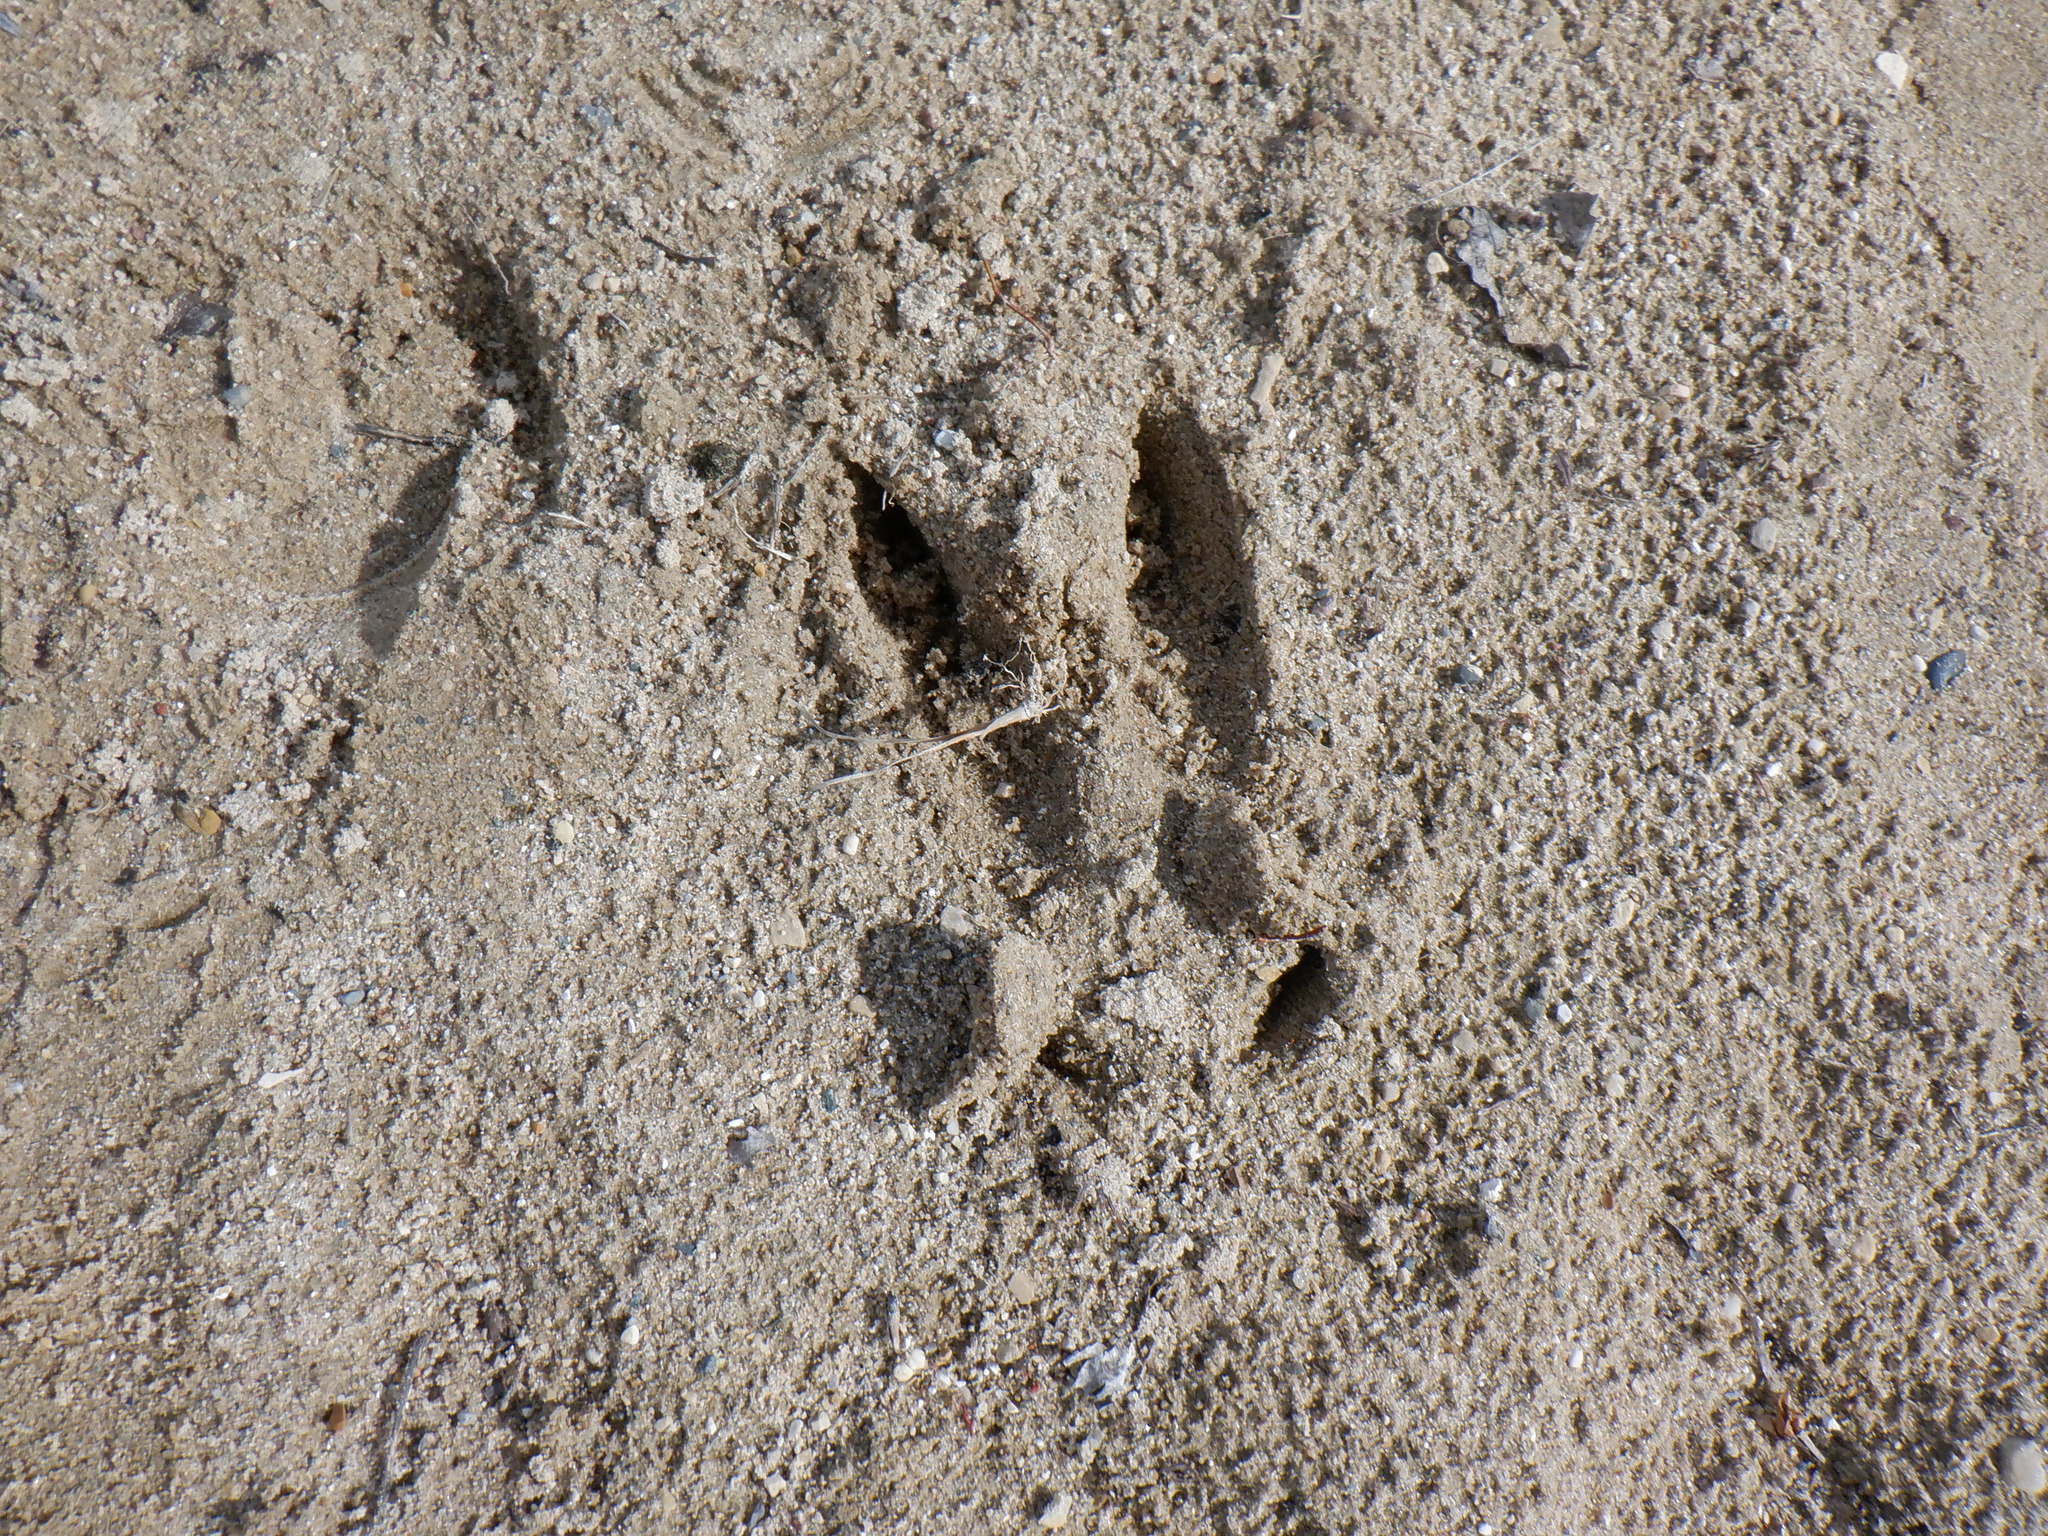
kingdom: Animalia
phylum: Chordata
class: Mammalia
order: Artiodactyla
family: Cervidae
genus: Odocoileus
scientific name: Odocoileus virginianus
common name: White-tailed deer
